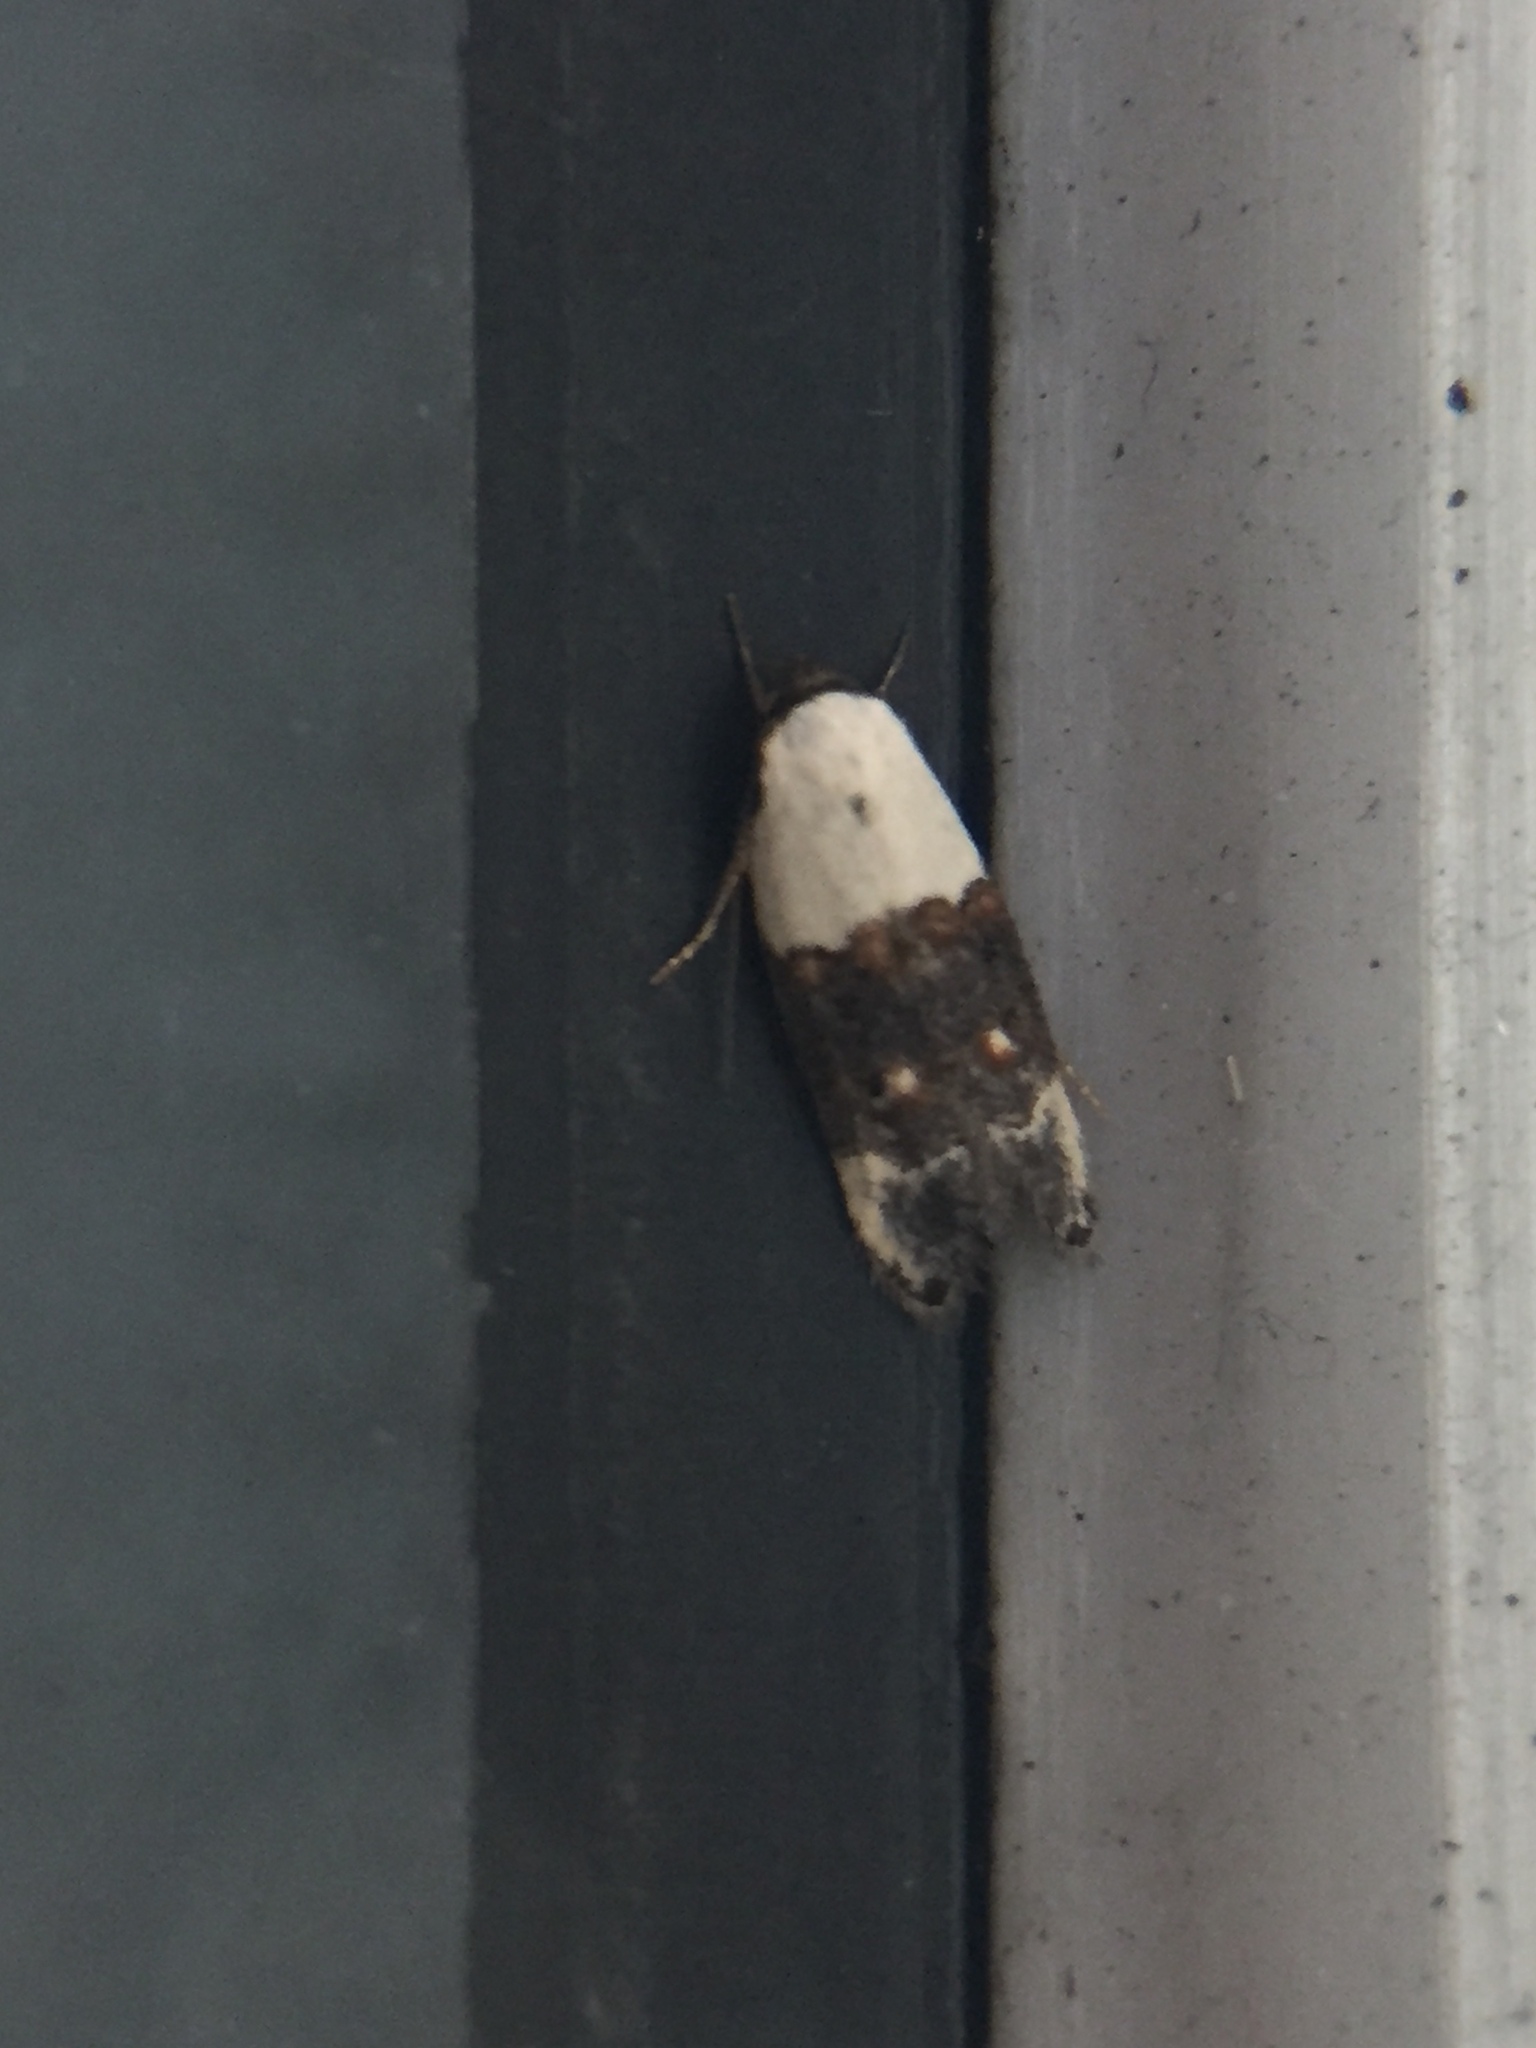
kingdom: Animalia
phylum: Arthropoda
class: Insecta
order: Lepidoptera
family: Oecophoridae
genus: Trachypepla
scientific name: Trachypepla amphileuca
